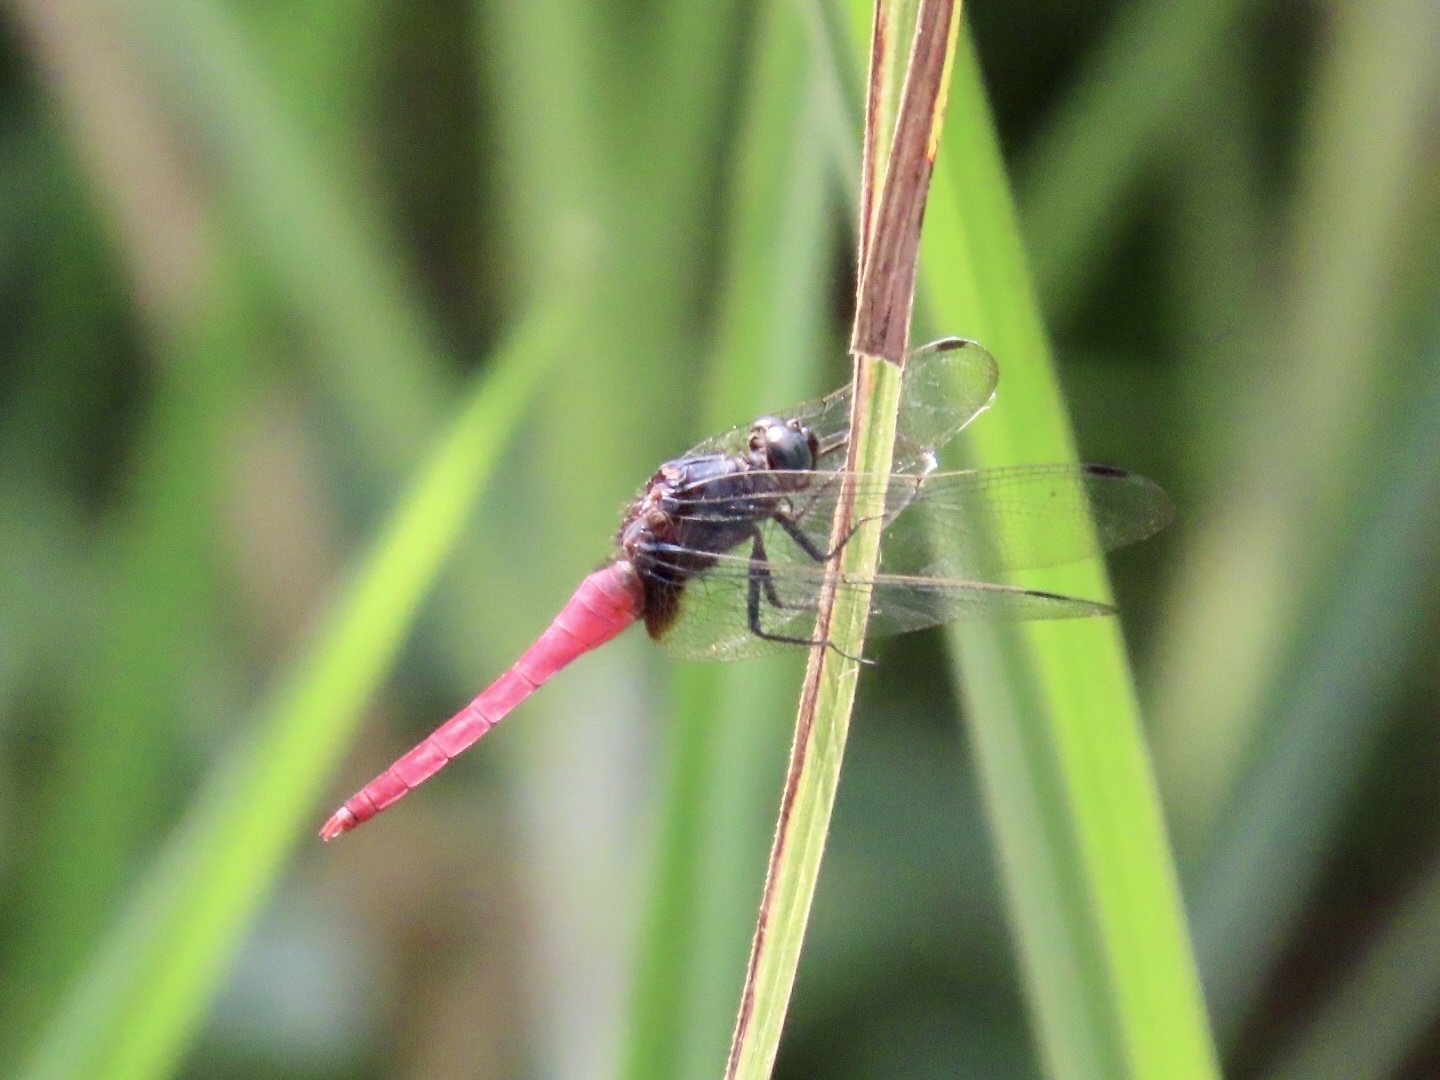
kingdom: Animalia
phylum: Arthropoda
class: Insecta
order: Odonata
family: Libellulidae
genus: Orthetrum
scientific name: Orthetrum pruinosum
